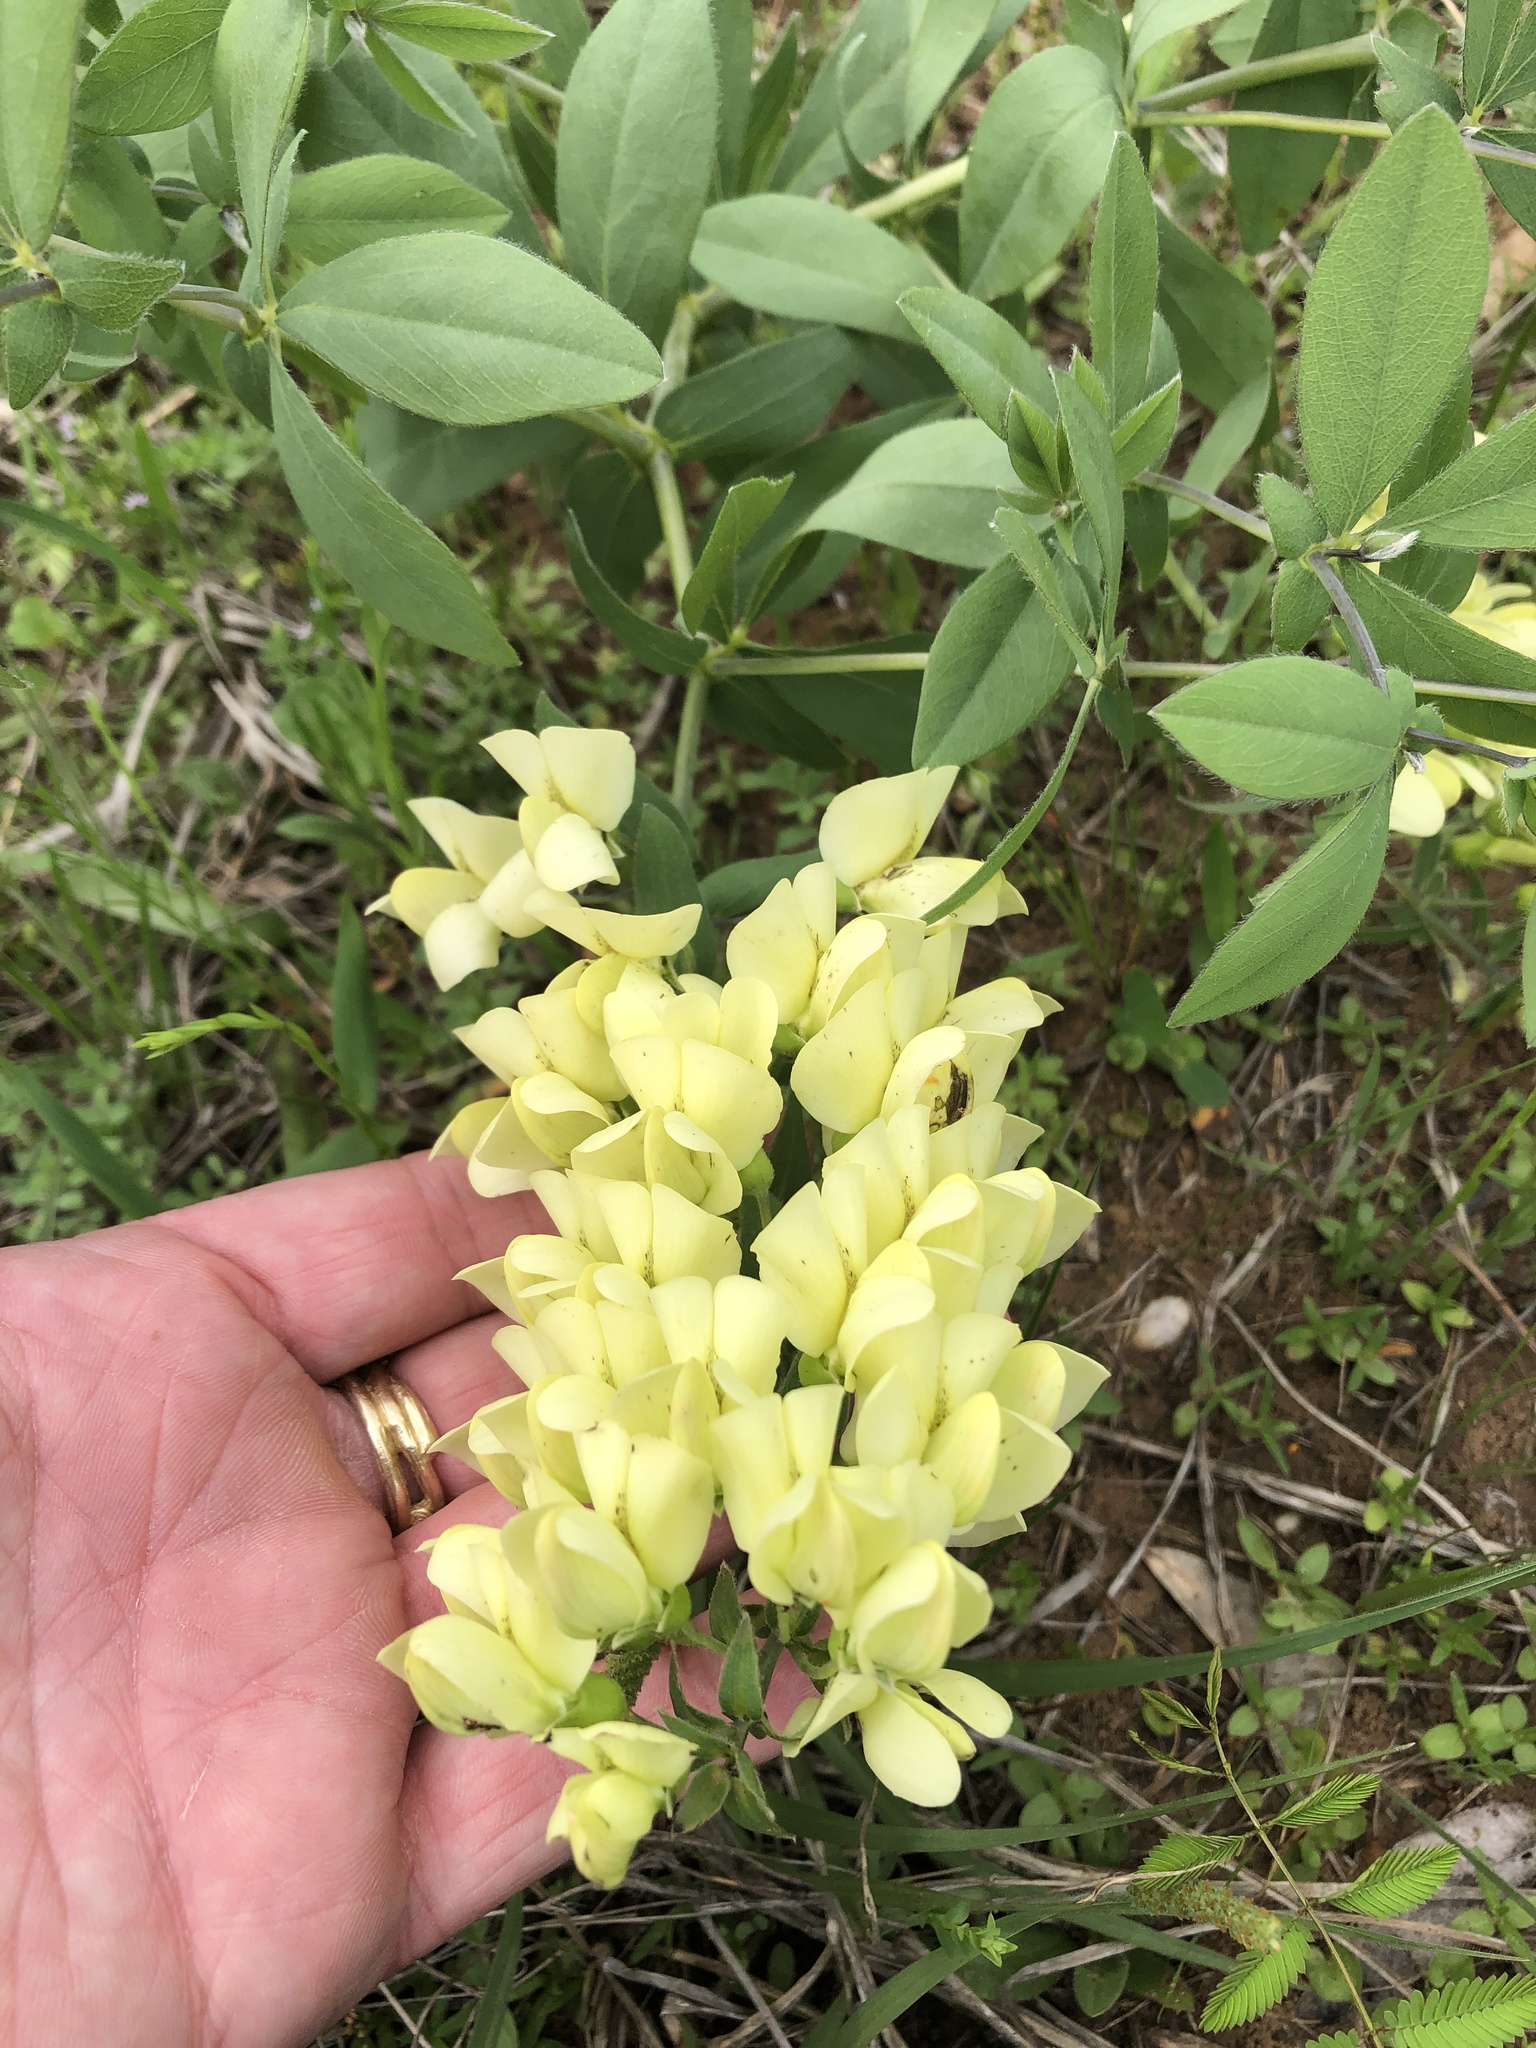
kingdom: Plantae
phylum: Tracheophyta
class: Magnoliopsida
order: Fabales
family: Fabaceae
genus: Baptisia
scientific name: Baptisia bracteata
